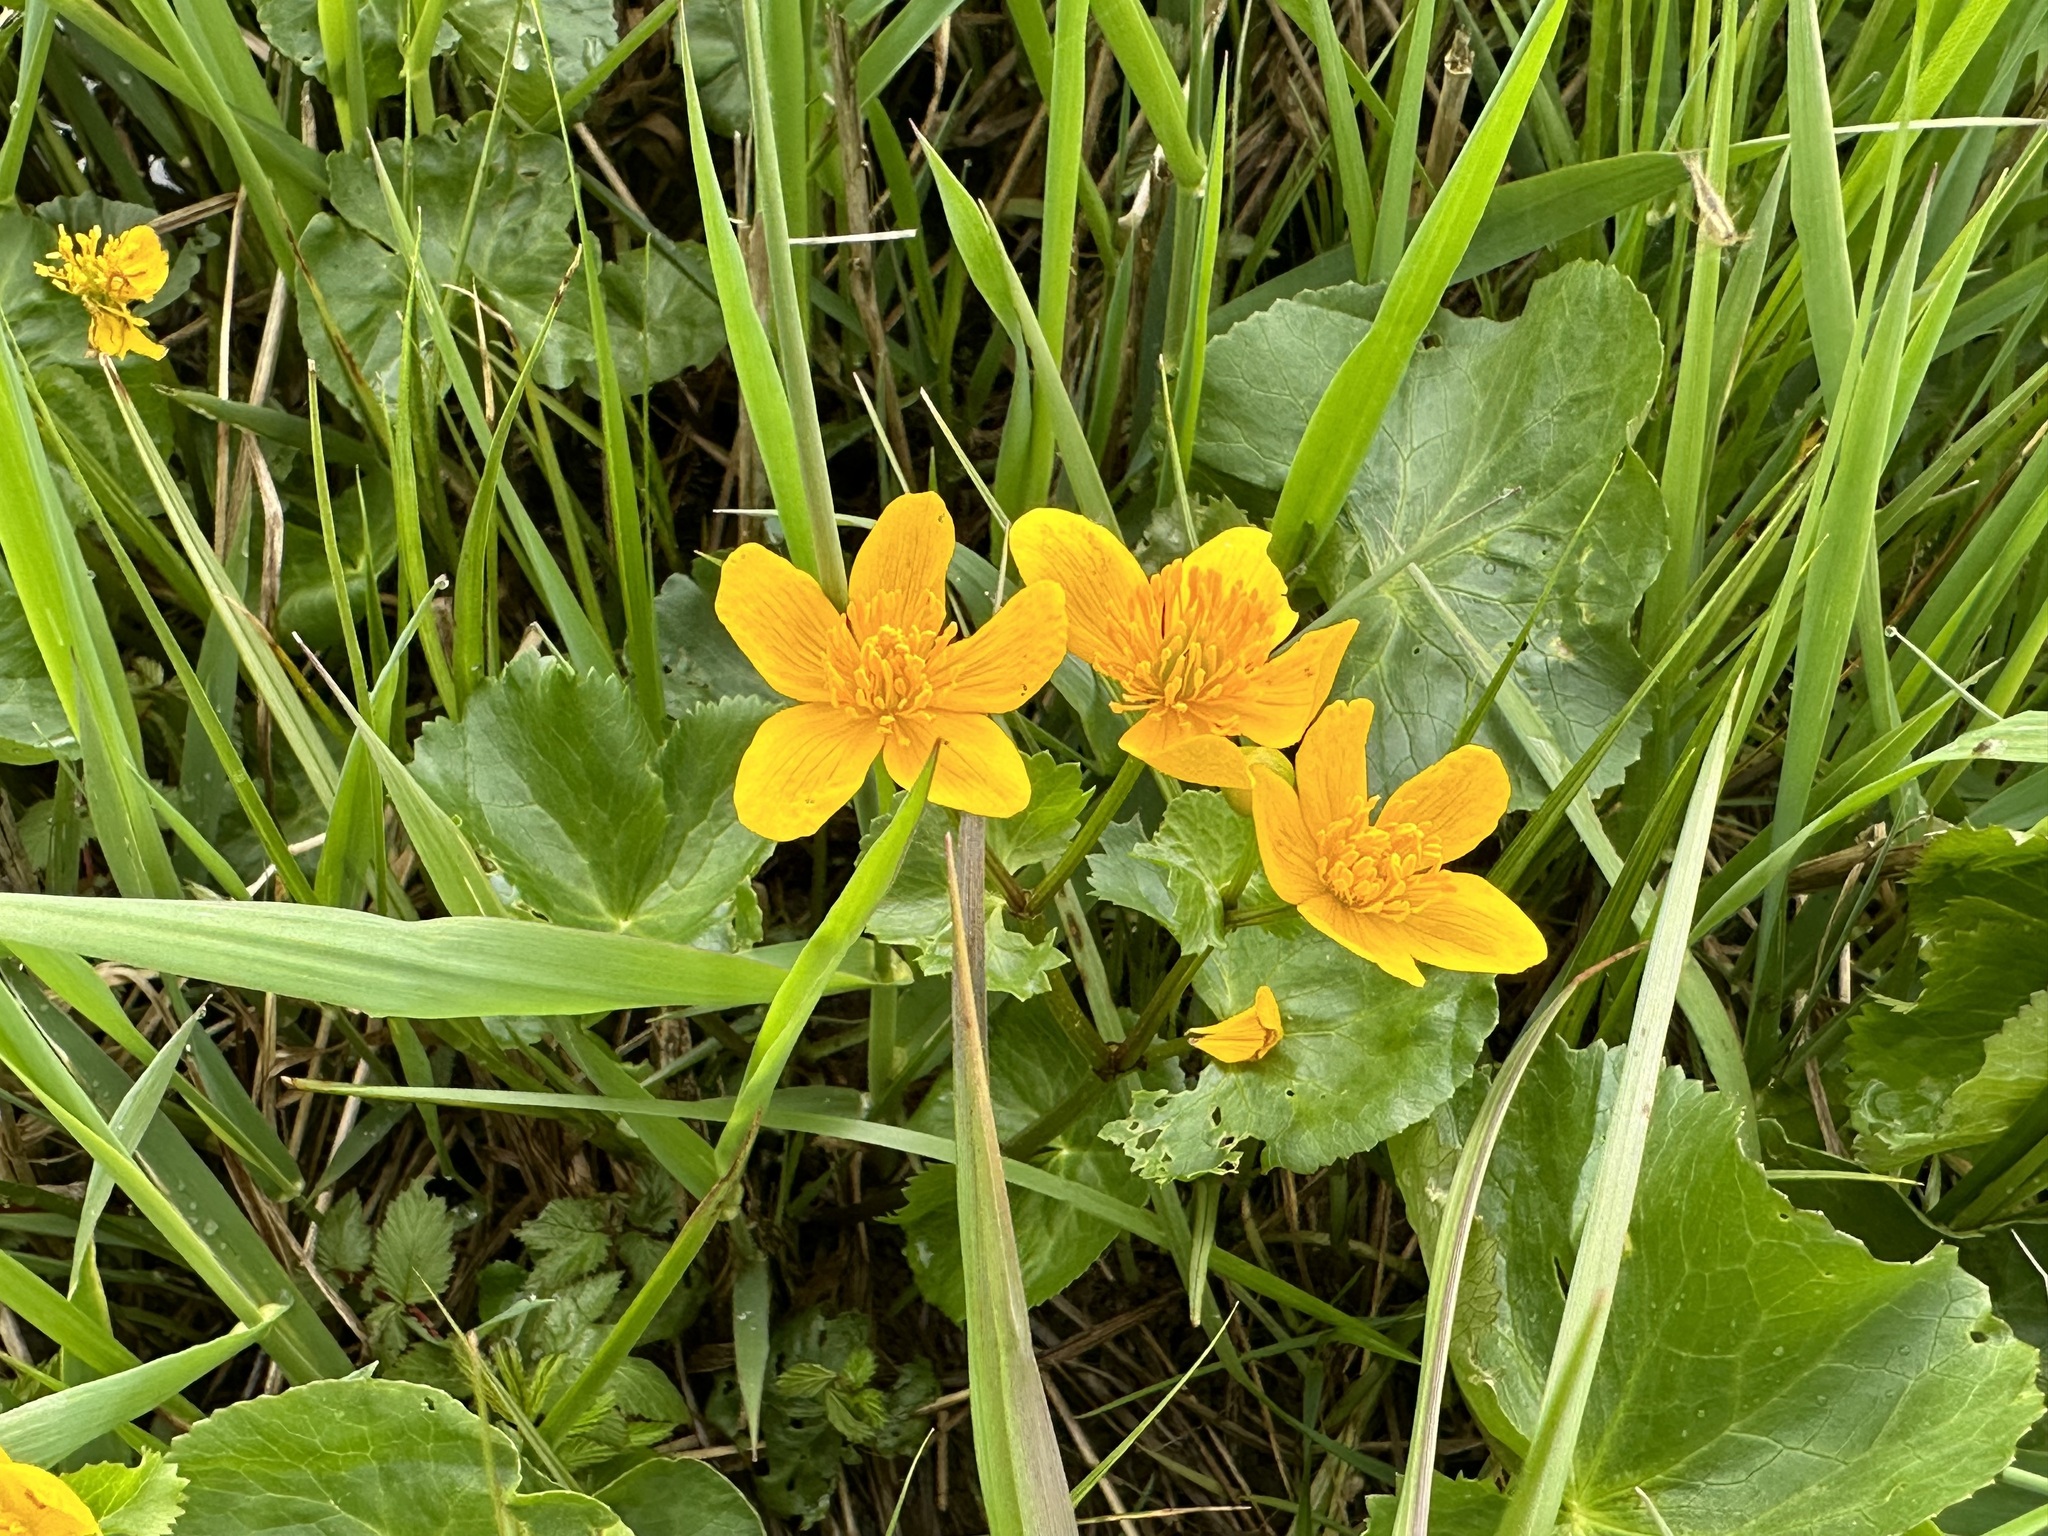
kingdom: Plantae
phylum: Tracheophyta
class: Magnoliopsida
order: Ranunculales
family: Ranunculaceae
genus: Caltha
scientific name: Caltha palustris
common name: Marsh marigold
